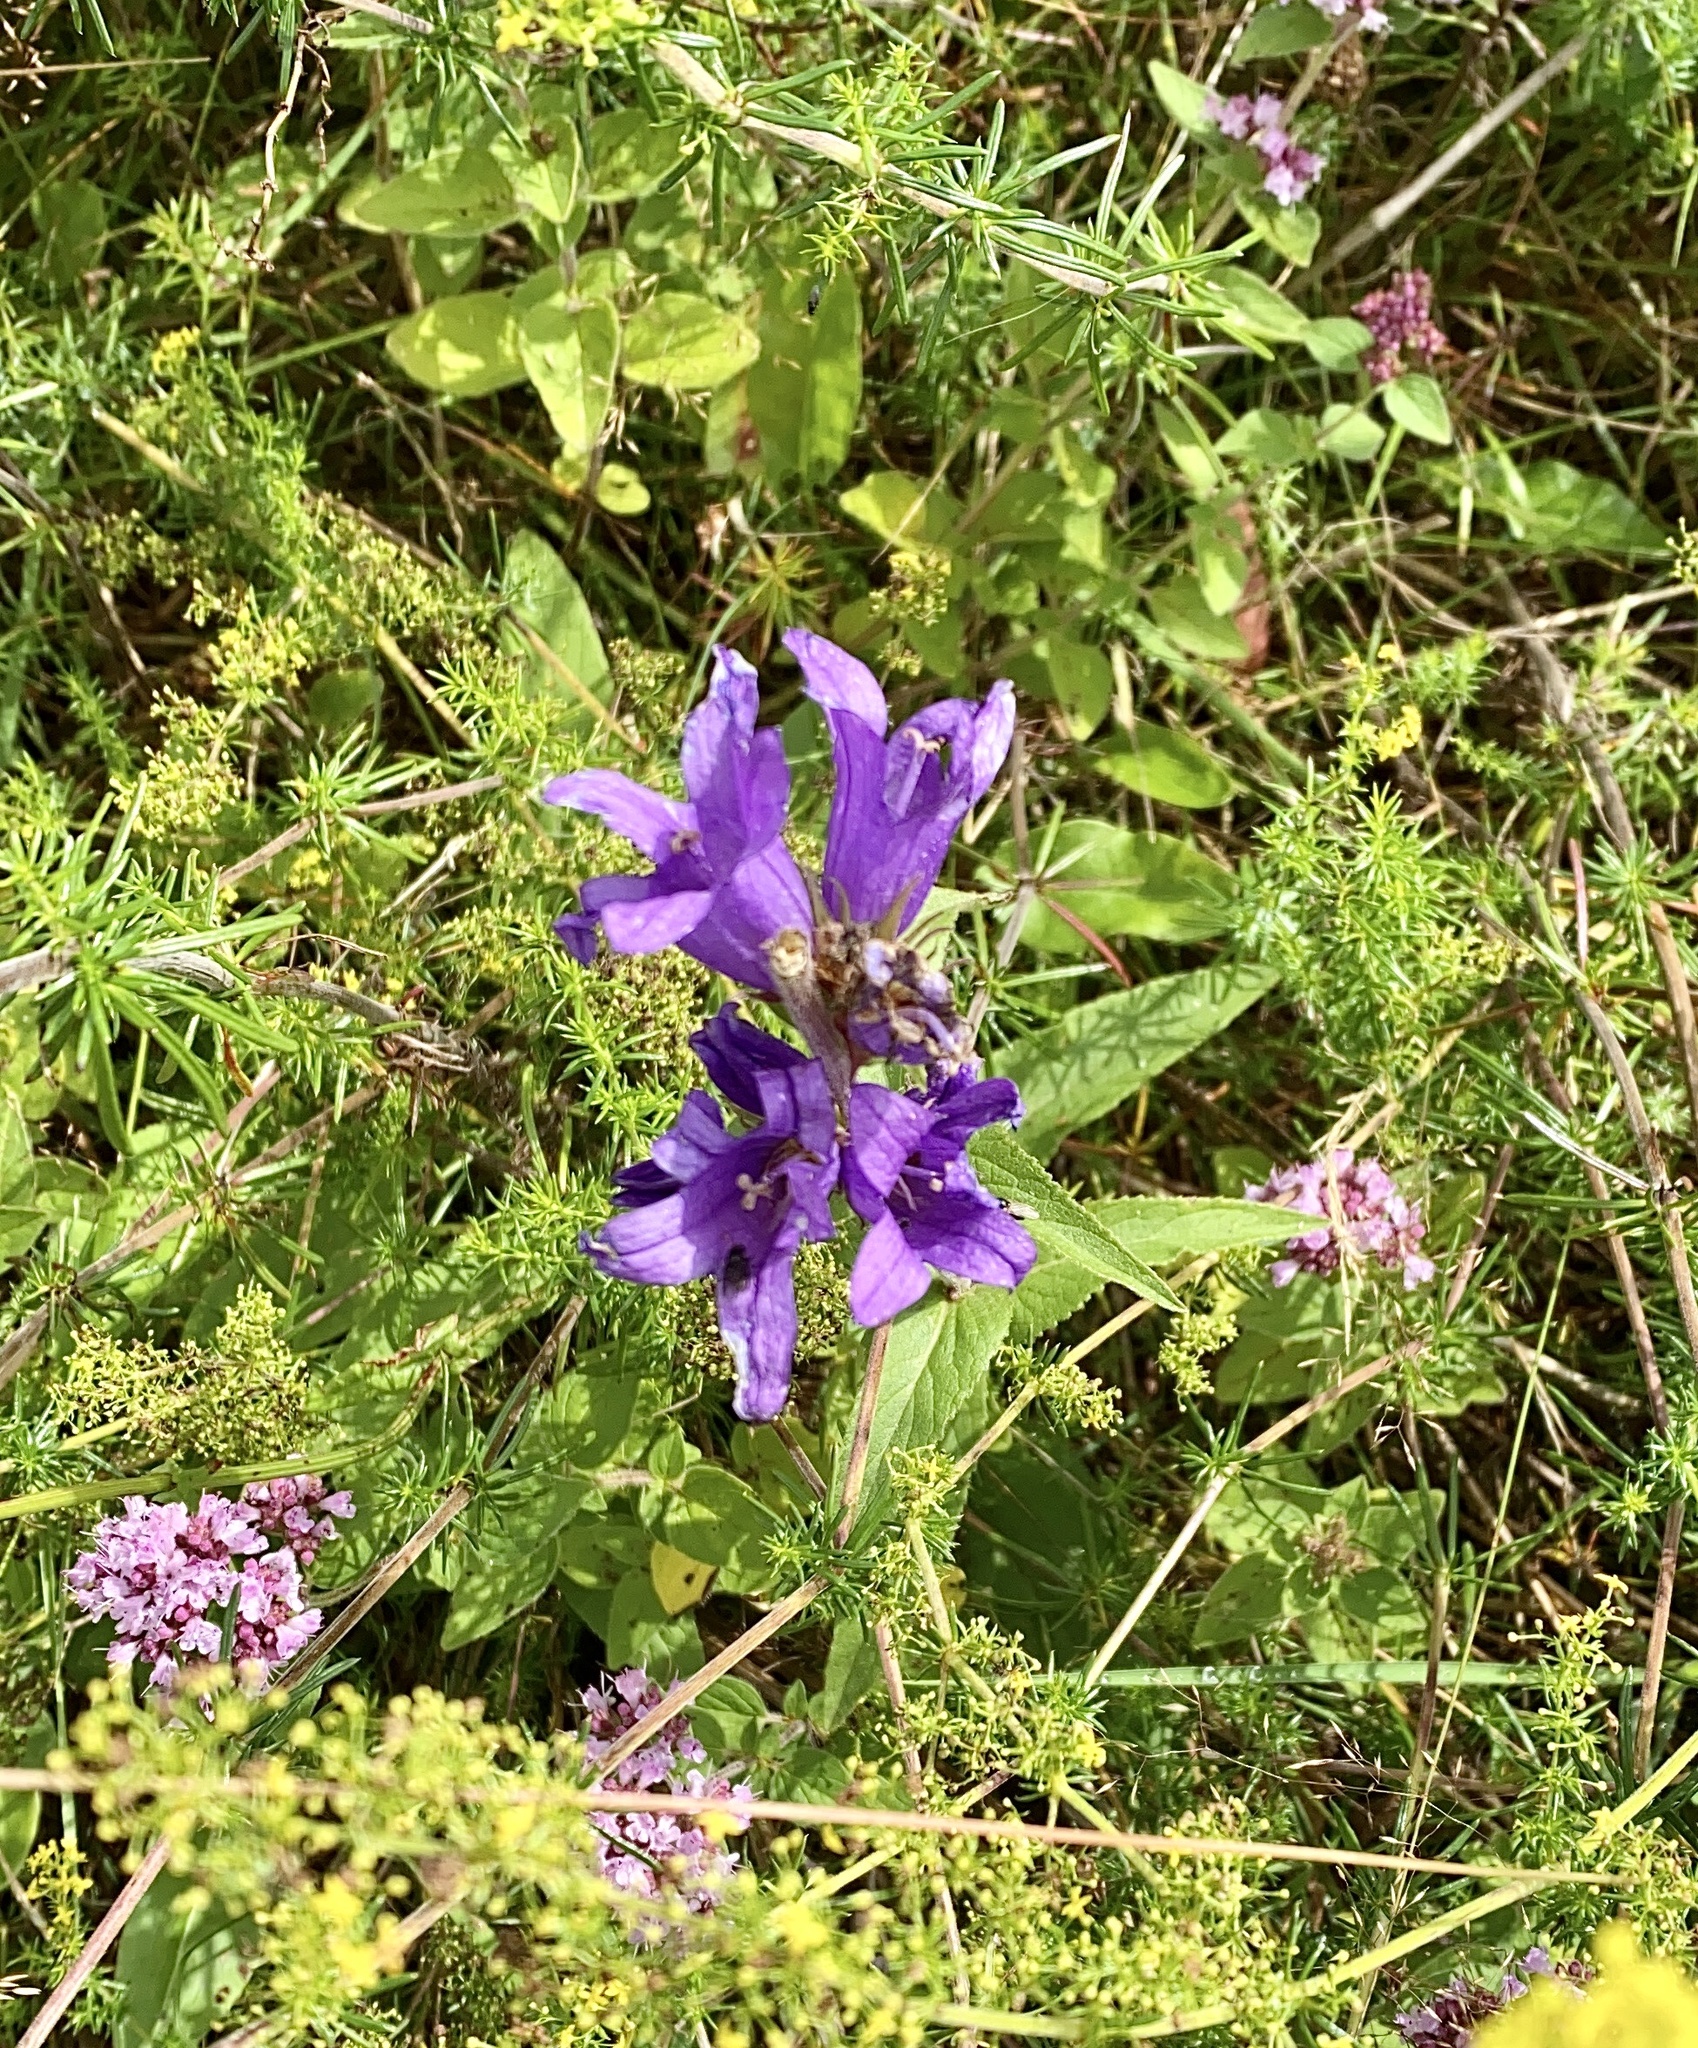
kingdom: Plantae
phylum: Tracheophyta
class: Magnoliopsida
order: Asterales
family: Campanulaceae
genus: Campanula
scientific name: Campanula glomerata
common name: Clustered bellflower
